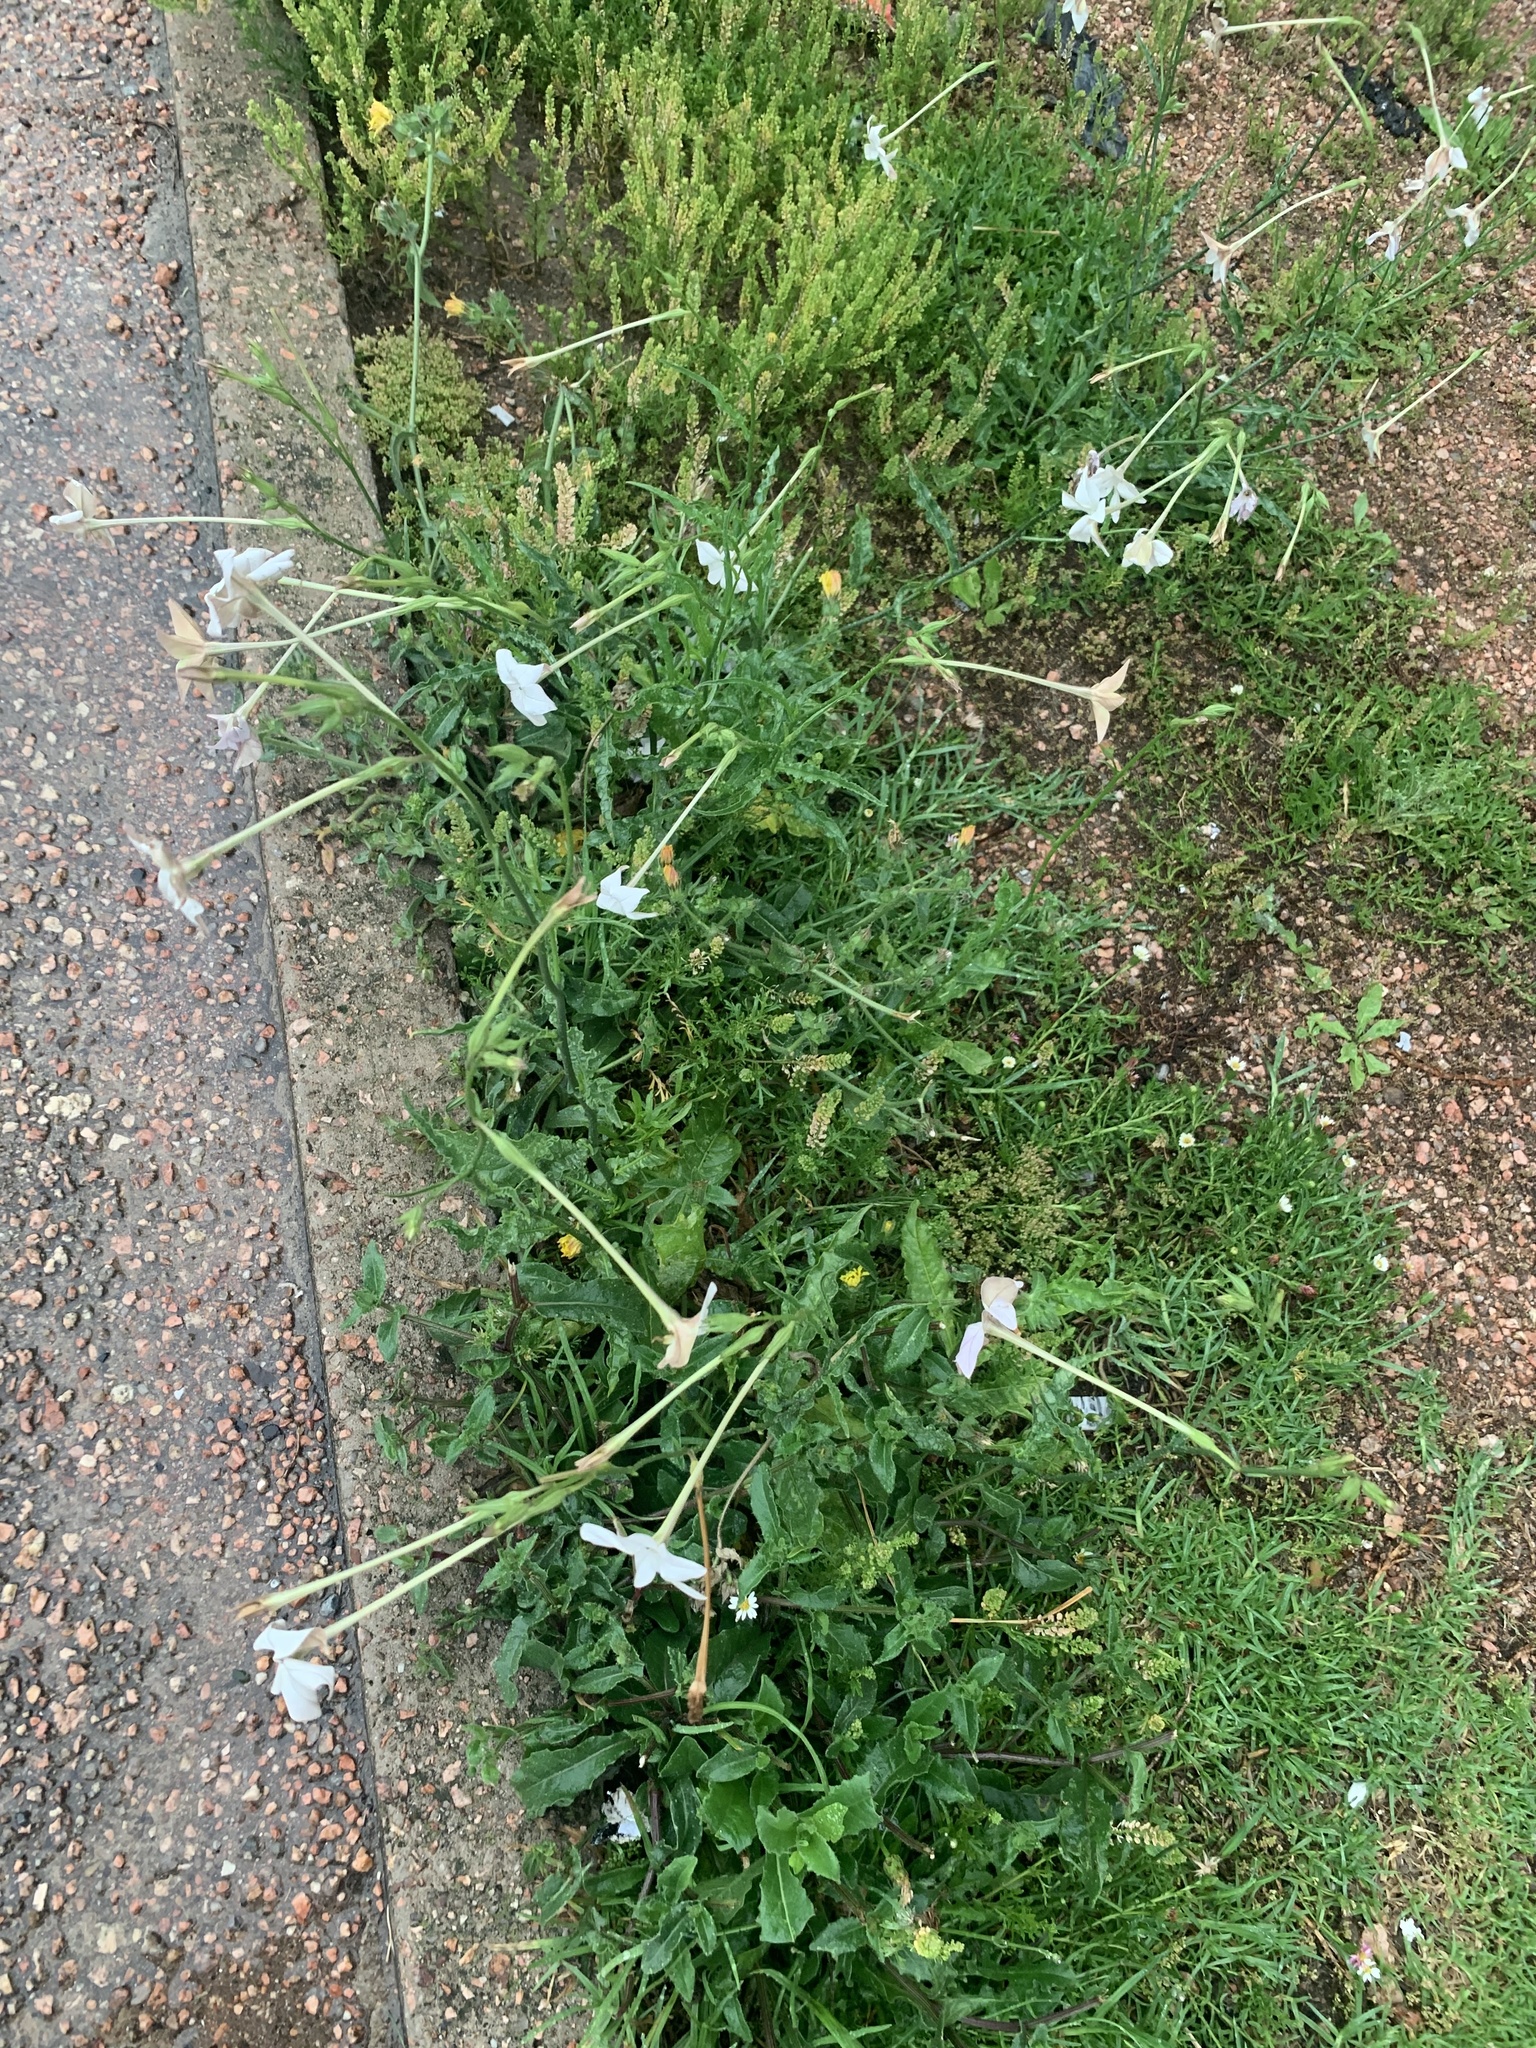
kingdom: Plantae
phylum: Tracheophyta
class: Magnoliopsida
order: Solanales
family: Solanaceae
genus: Nicotiana
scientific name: Nicotiana longiflora
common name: Long-flowered tobacco
